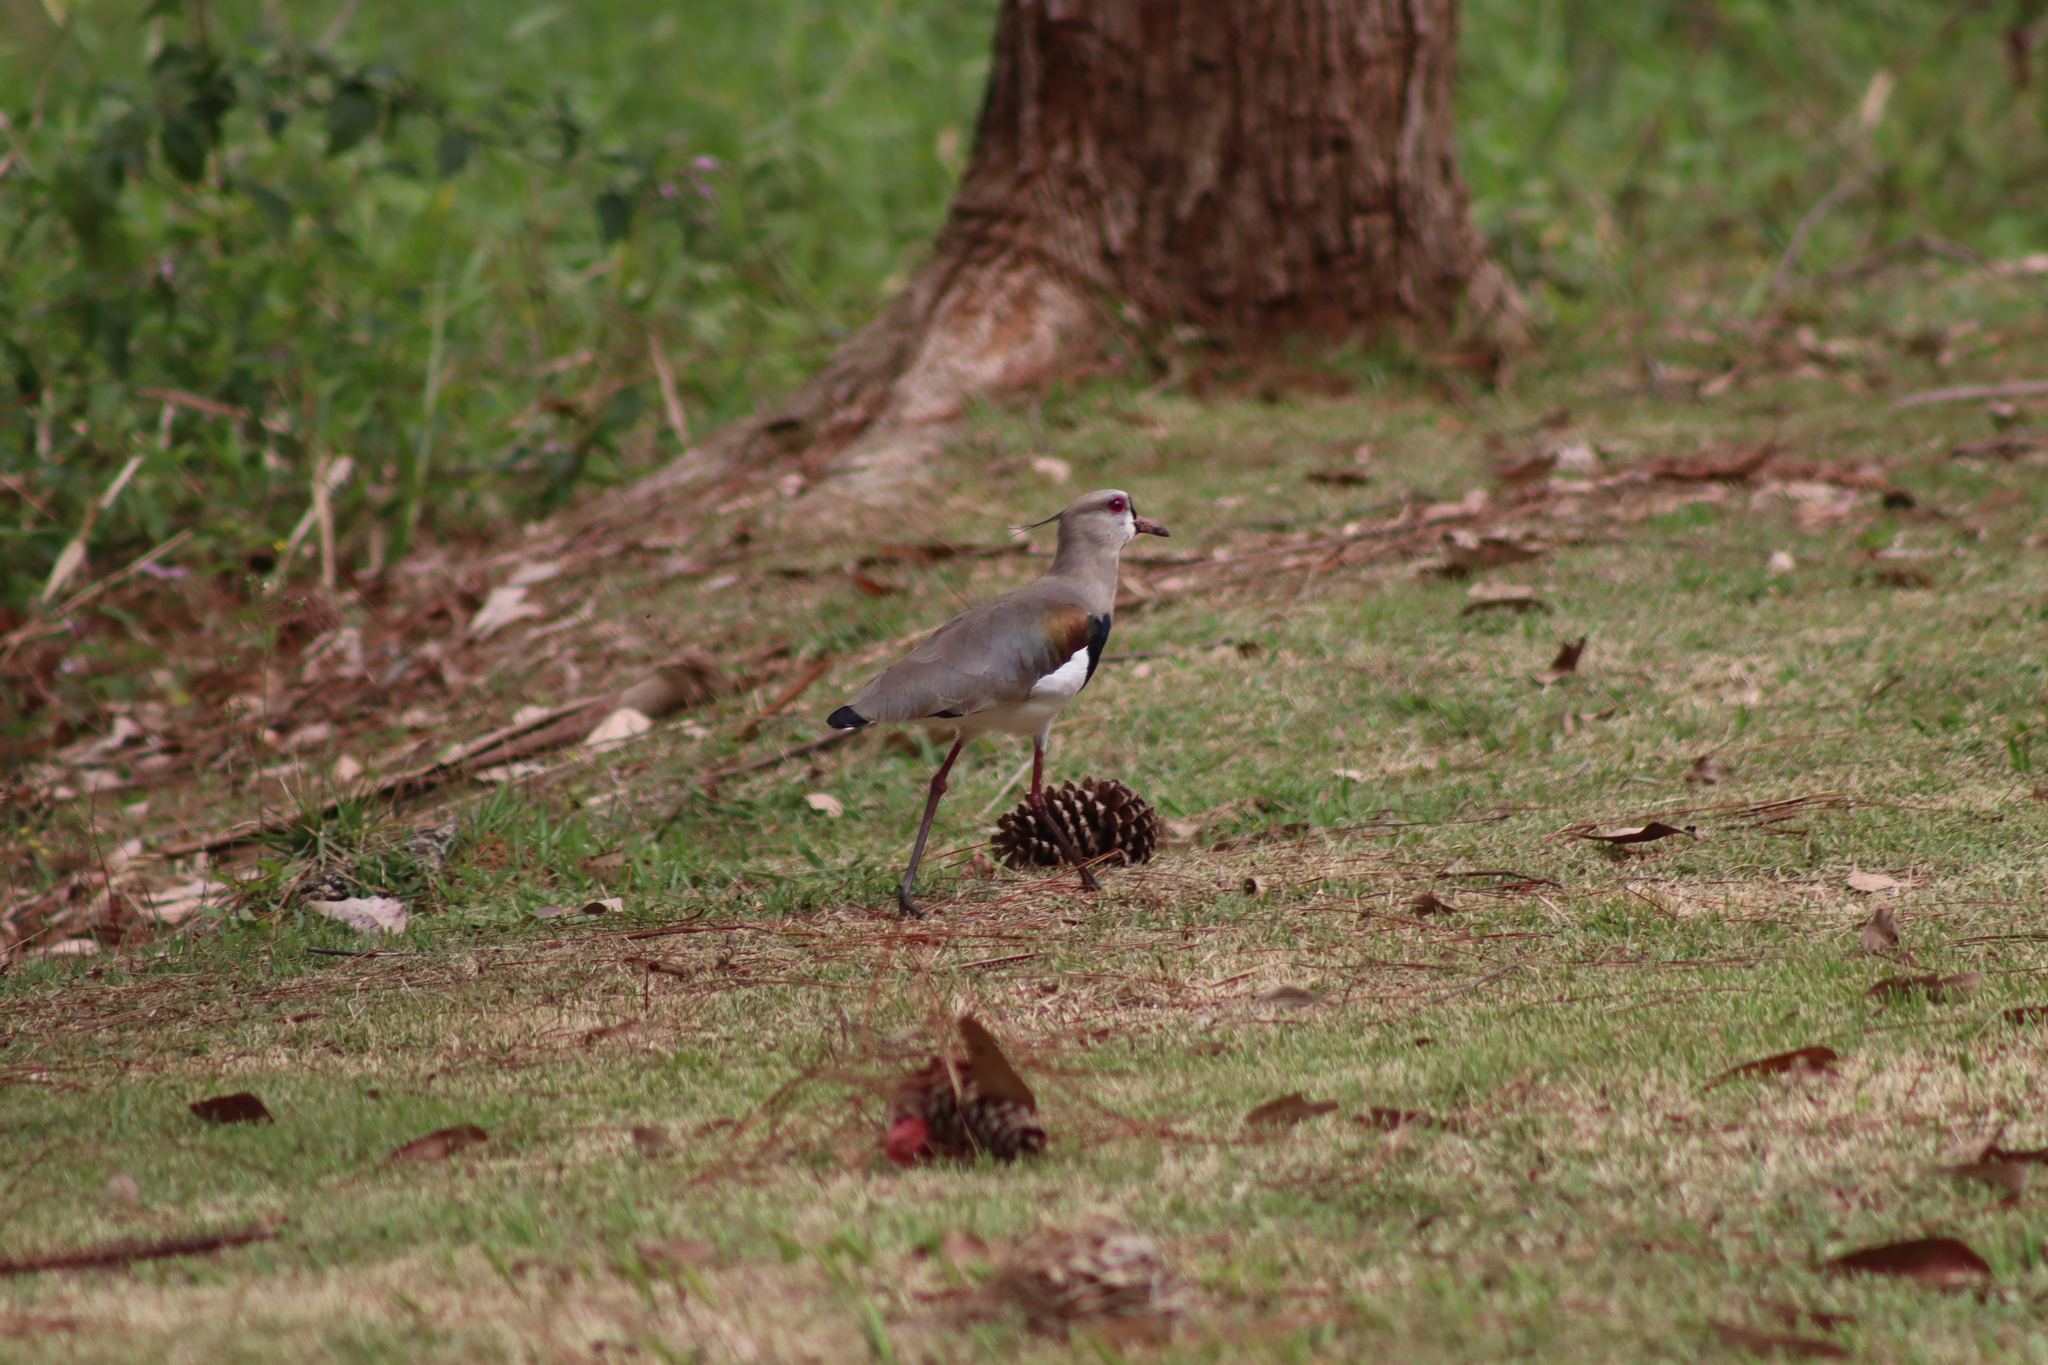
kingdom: Animalia
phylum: Chordata
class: Aves
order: Charadriiformes
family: Charadriidae
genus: Vanellus
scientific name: Vanellus chilensis
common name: Southern lapwing
